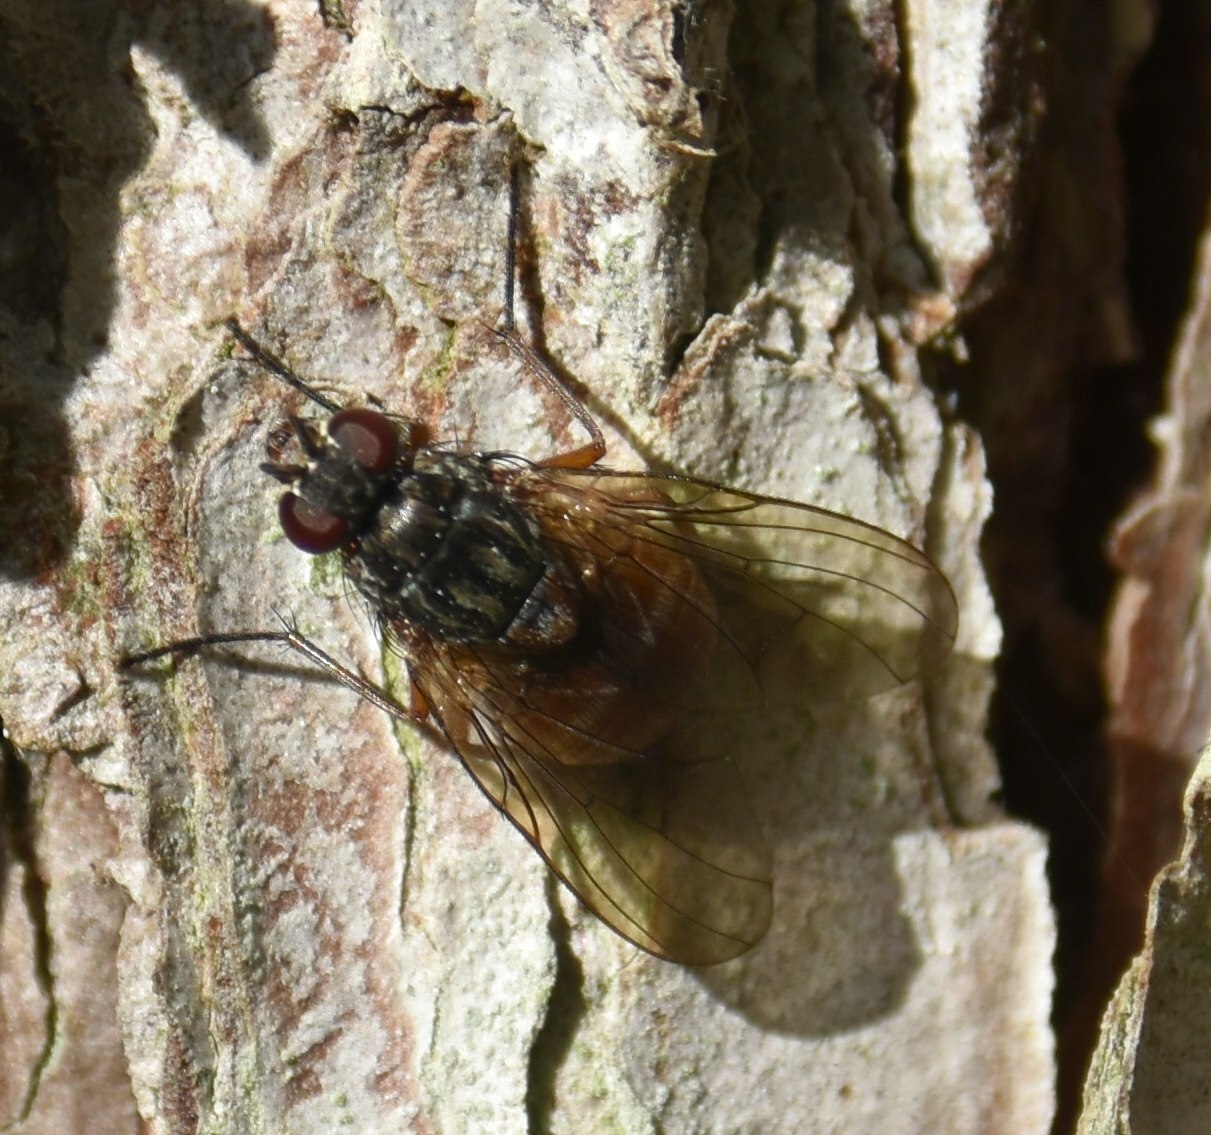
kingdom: Animalia
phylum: Arthropoda
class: Insecta
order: Diptera
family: Muscidae
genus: Phaonia
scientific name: Phaonia subventa
